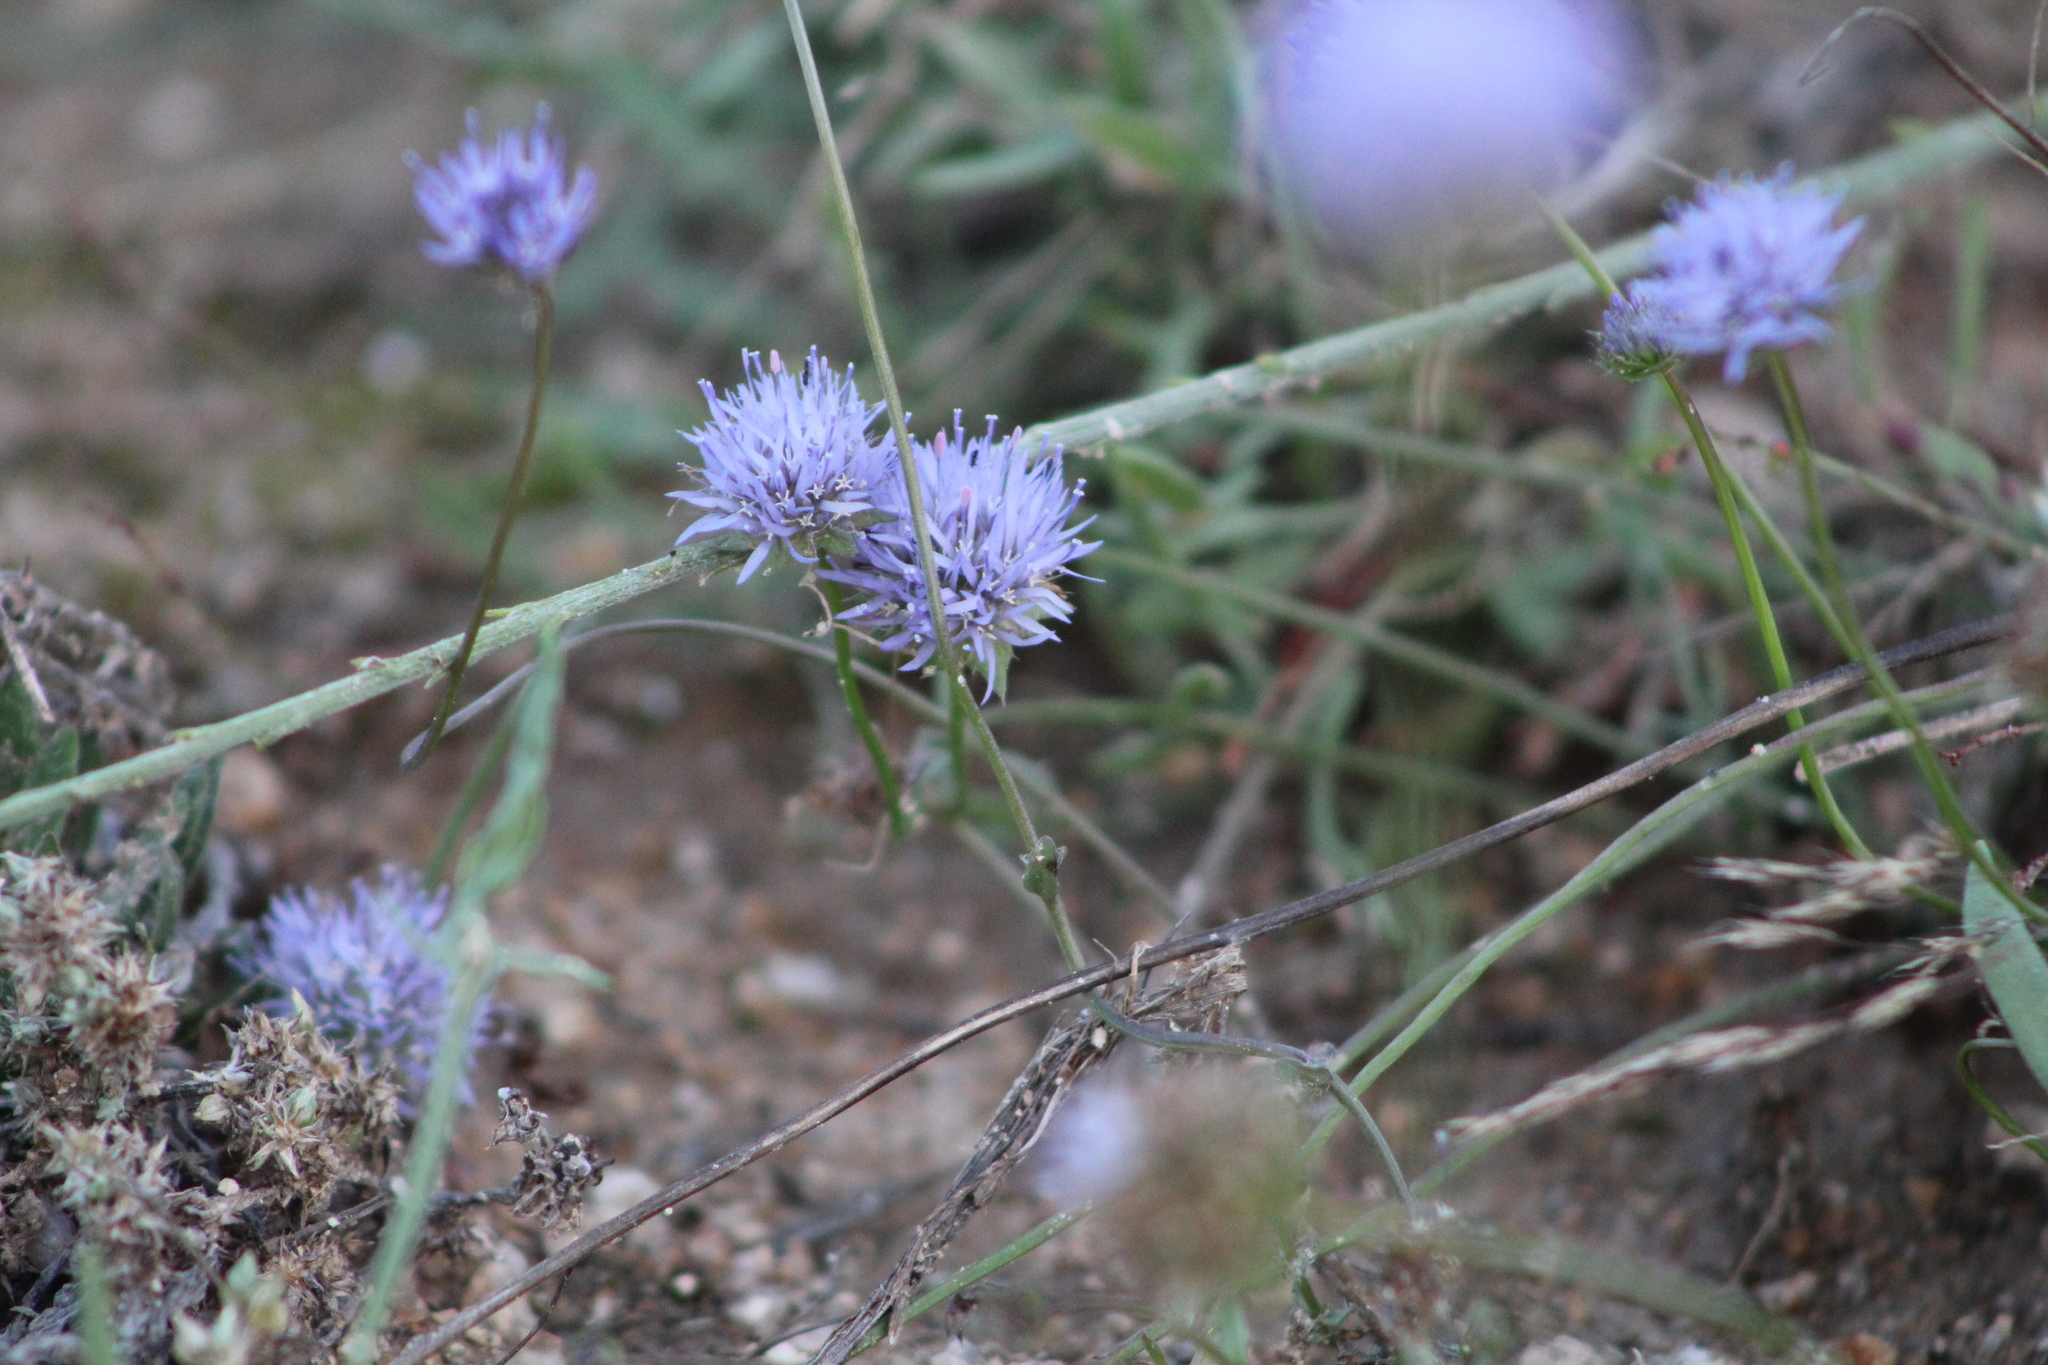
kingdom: Plantae
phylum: Tracheophyta
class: Magnoliopsida
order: Asterales
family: Campanulaceae
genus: Jasione
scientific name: Jasione montana
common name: Sheep's-bit
